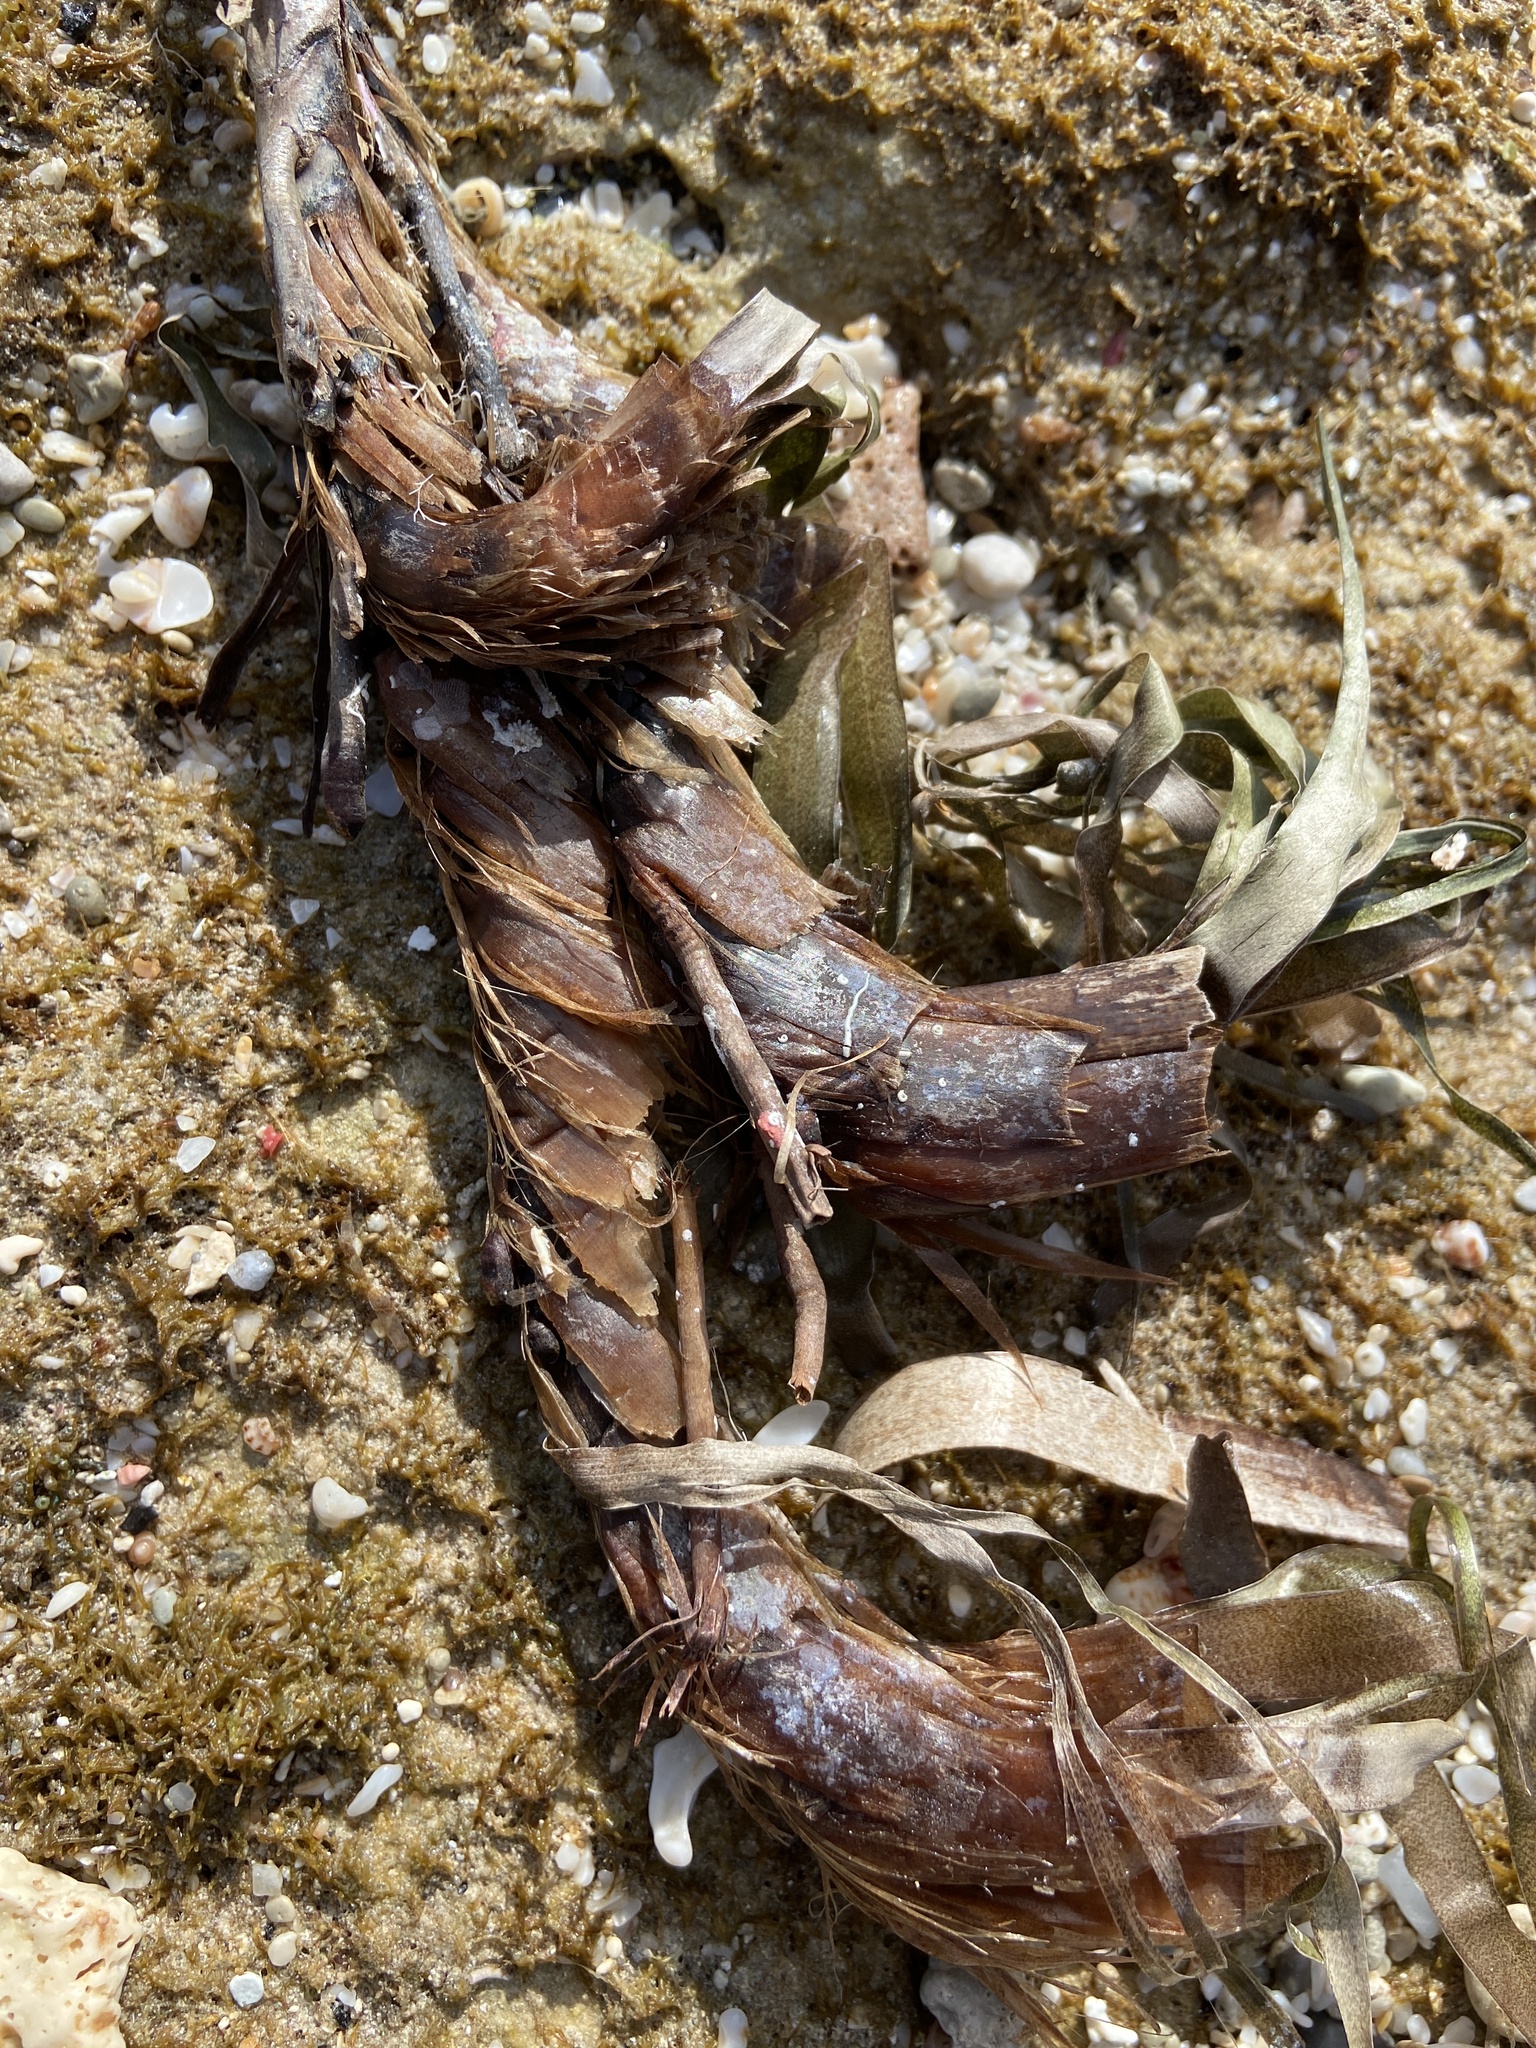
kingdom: Plantae
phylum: Tracheophyta
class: Liliopsida
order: Alismatales
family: Posidoniaceae
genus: Posidonia
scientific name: Posidonia oceanica
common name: Mediterranean tapeweed
